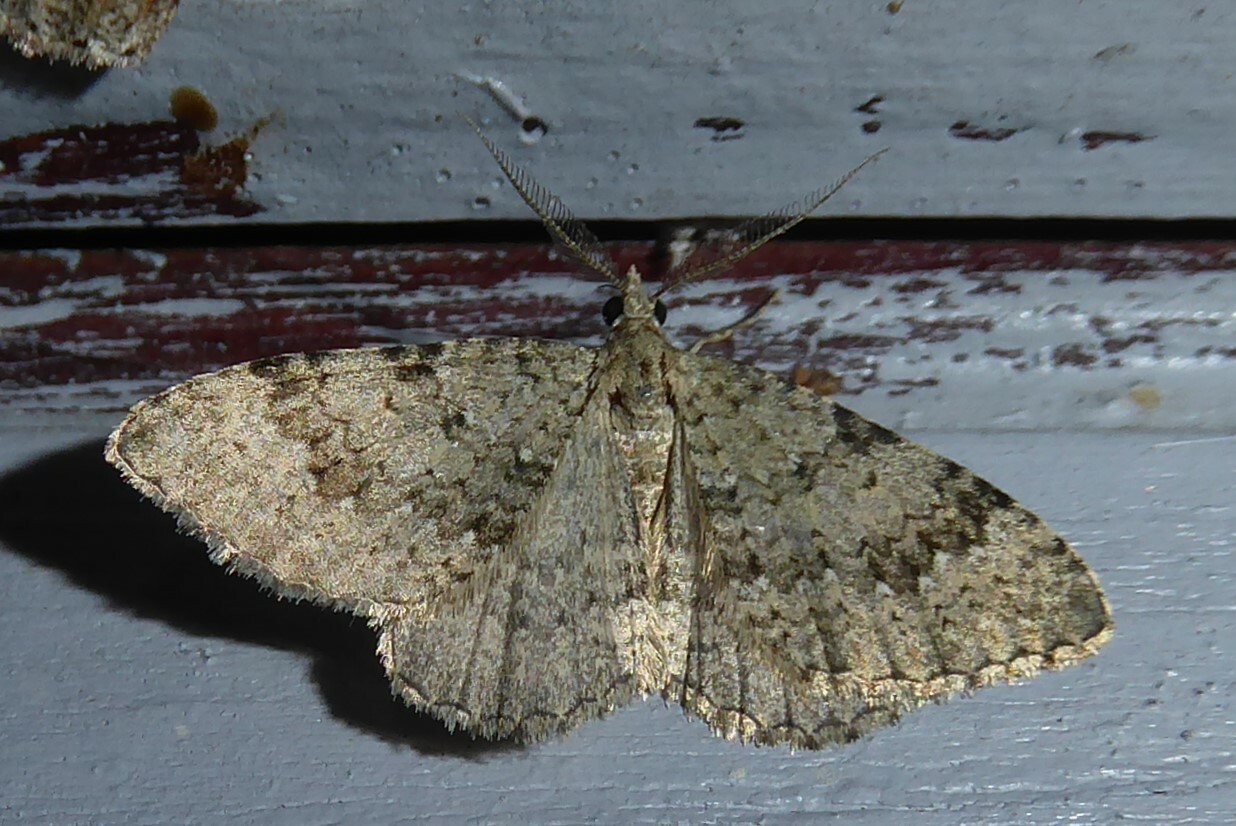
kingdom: Animalia
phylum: Arthropoda
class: Insecta
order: Lepidoptera
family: Geometridae
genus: Helastia
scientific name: Helastia corcularia
